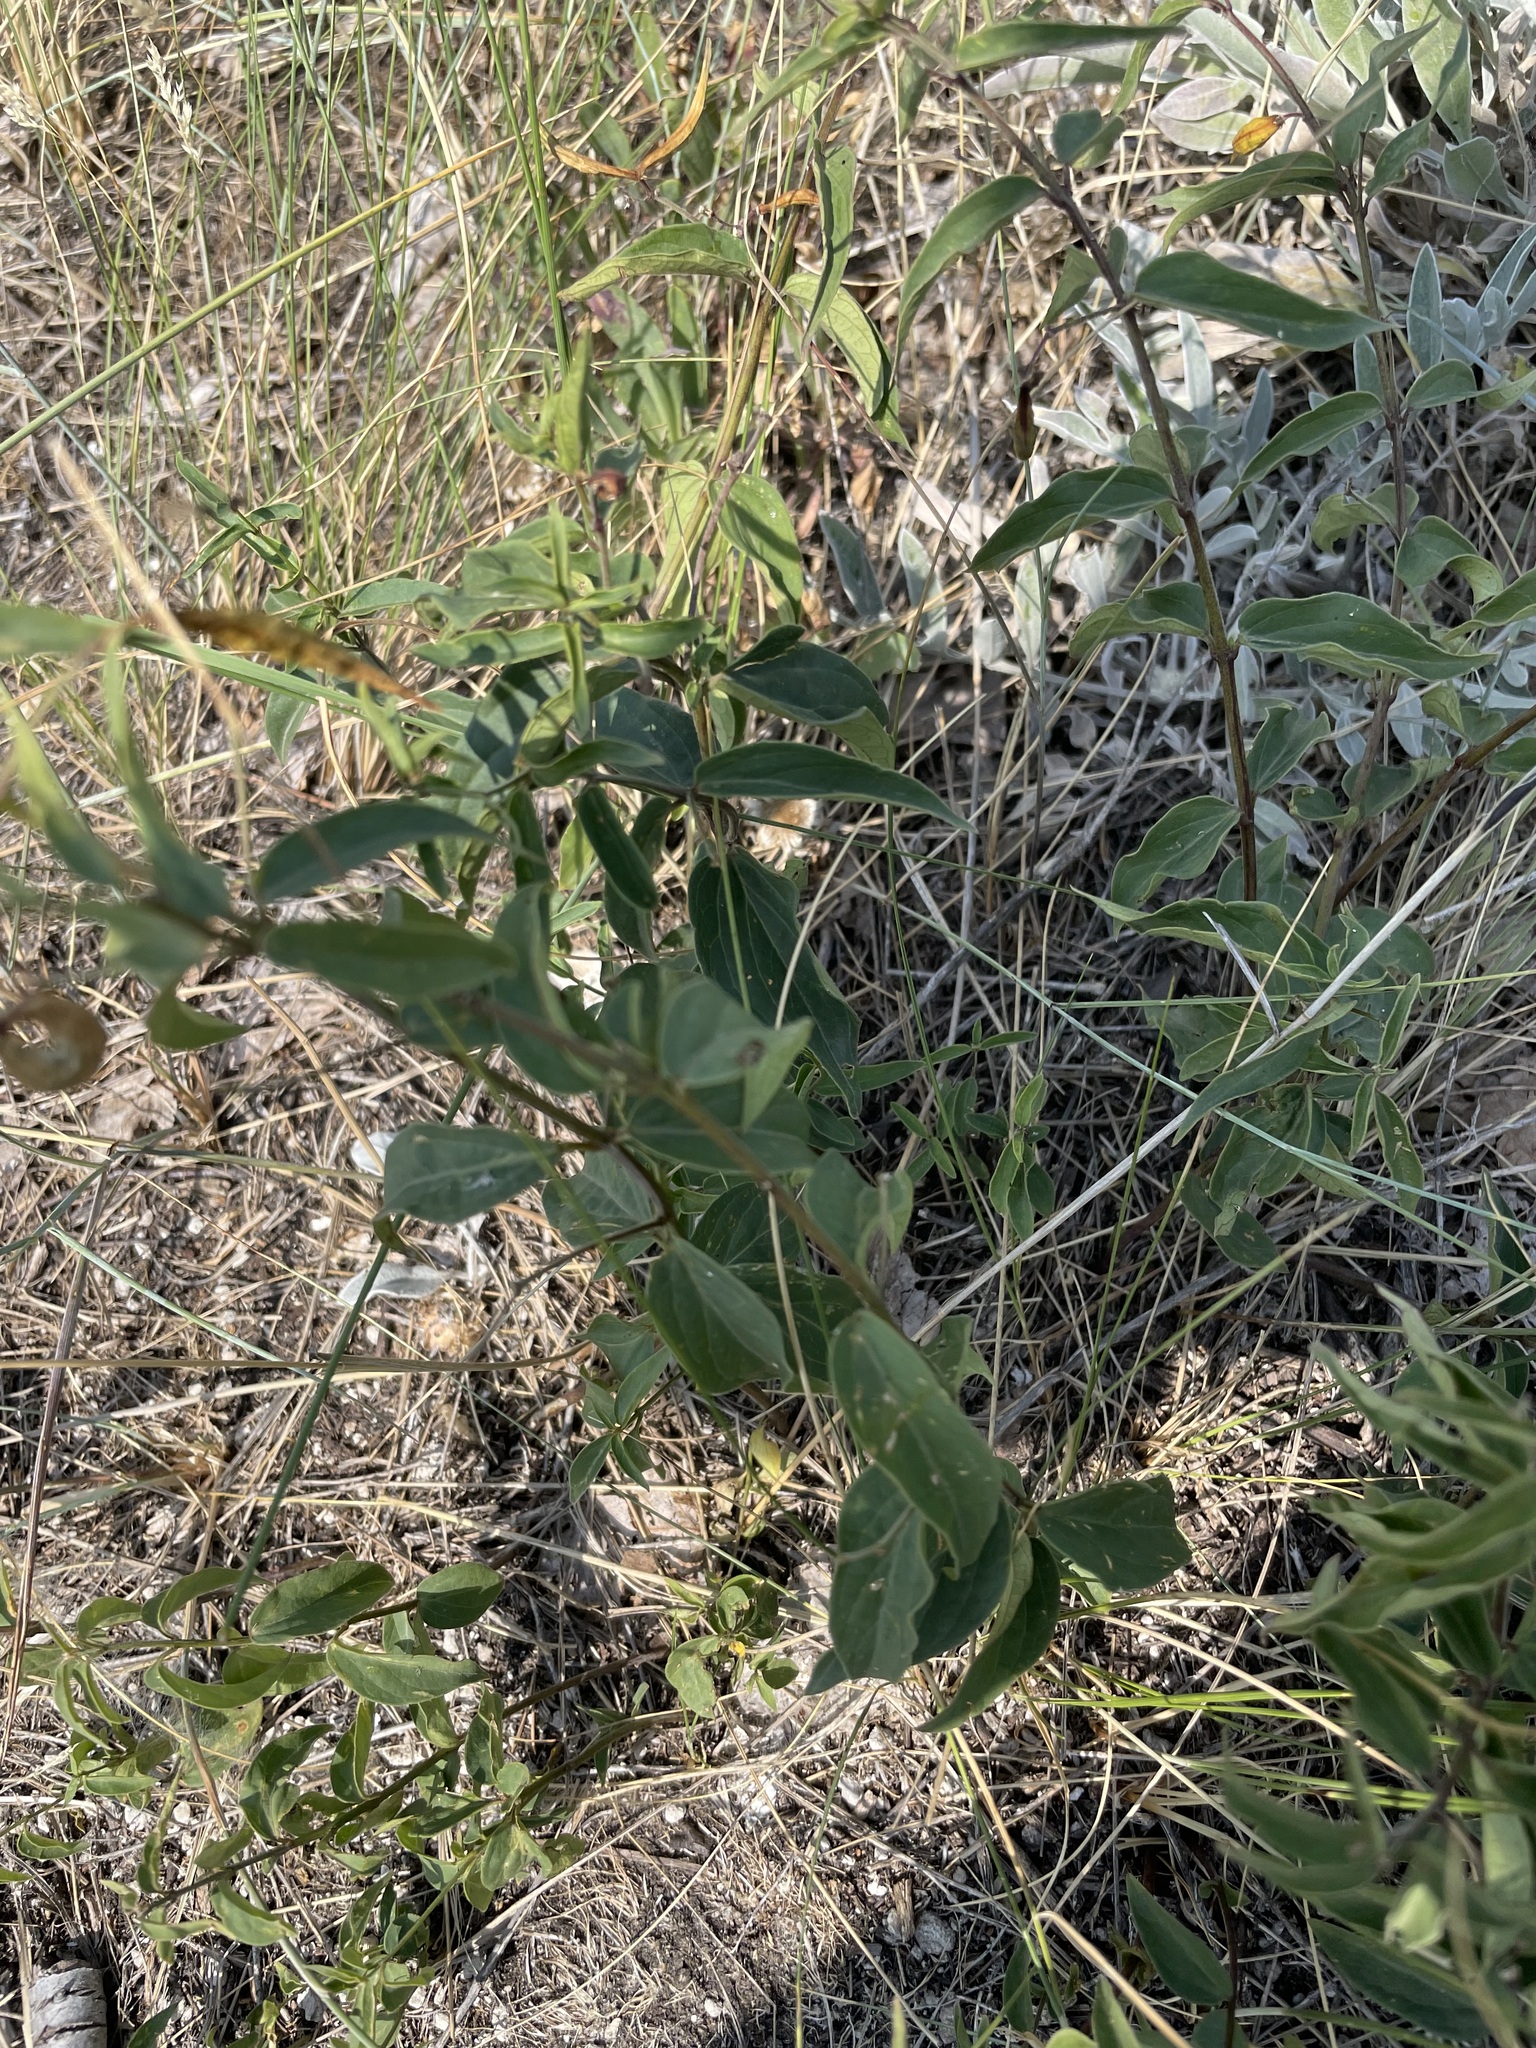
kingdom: Plantae
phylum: Tracheophyta
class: Magnoliopsida
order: Gentianales
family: Apocynaceae
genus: Vincetoxicum
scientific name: Vincetoxicum hirundinaria
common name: White swallowwort
